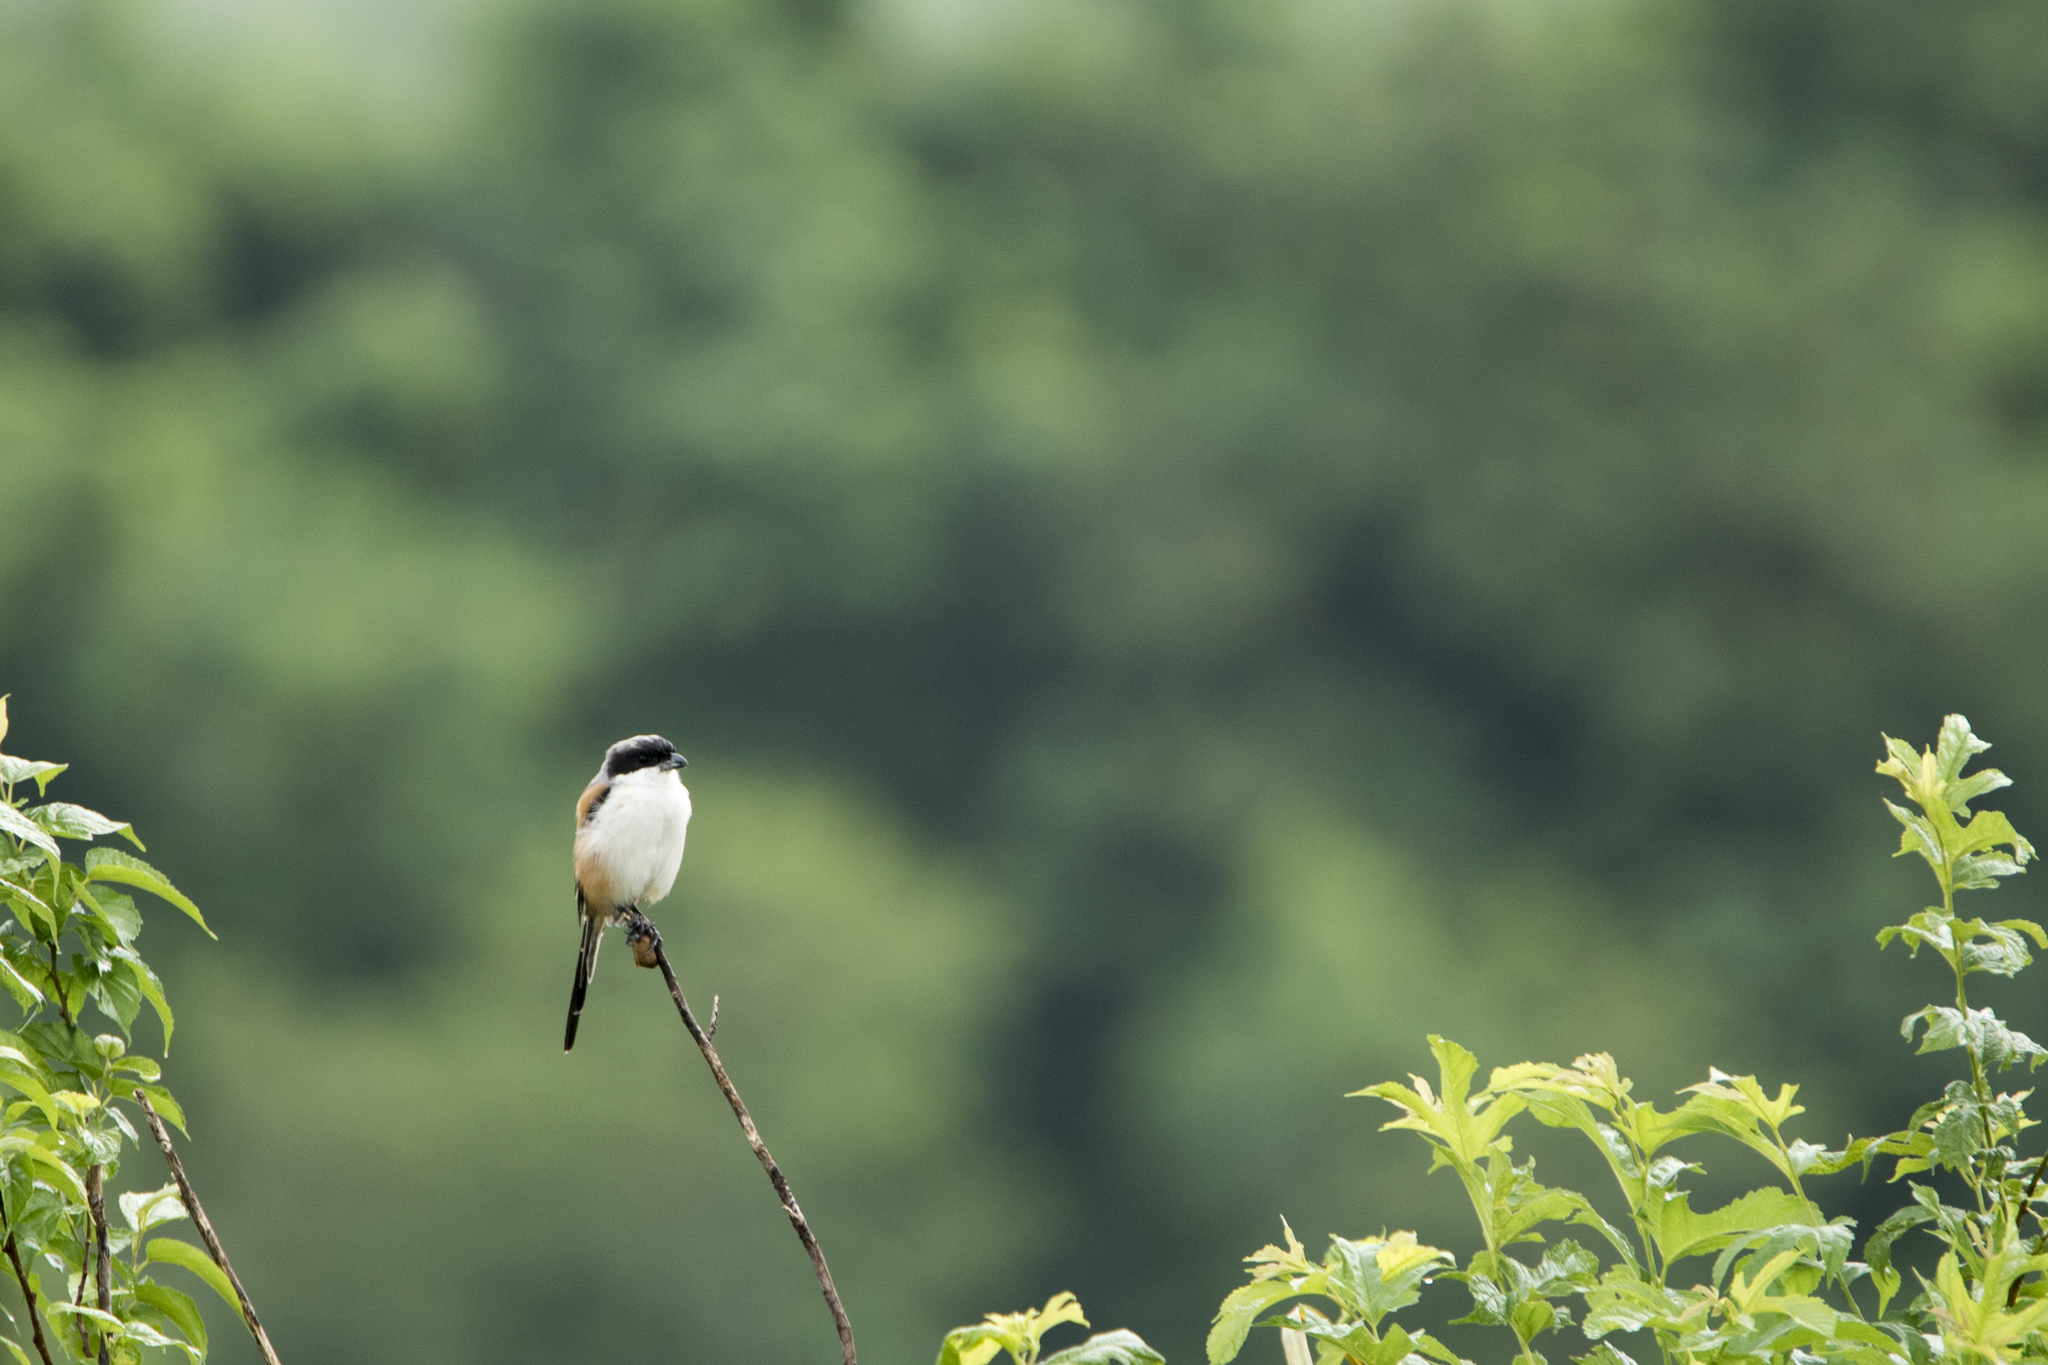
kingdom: Animalia
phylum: Chordata
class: Aves
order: Passeriformes
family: Laniidae
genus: Lanius
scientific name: Lanius schach
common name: Long-tailed shrike
